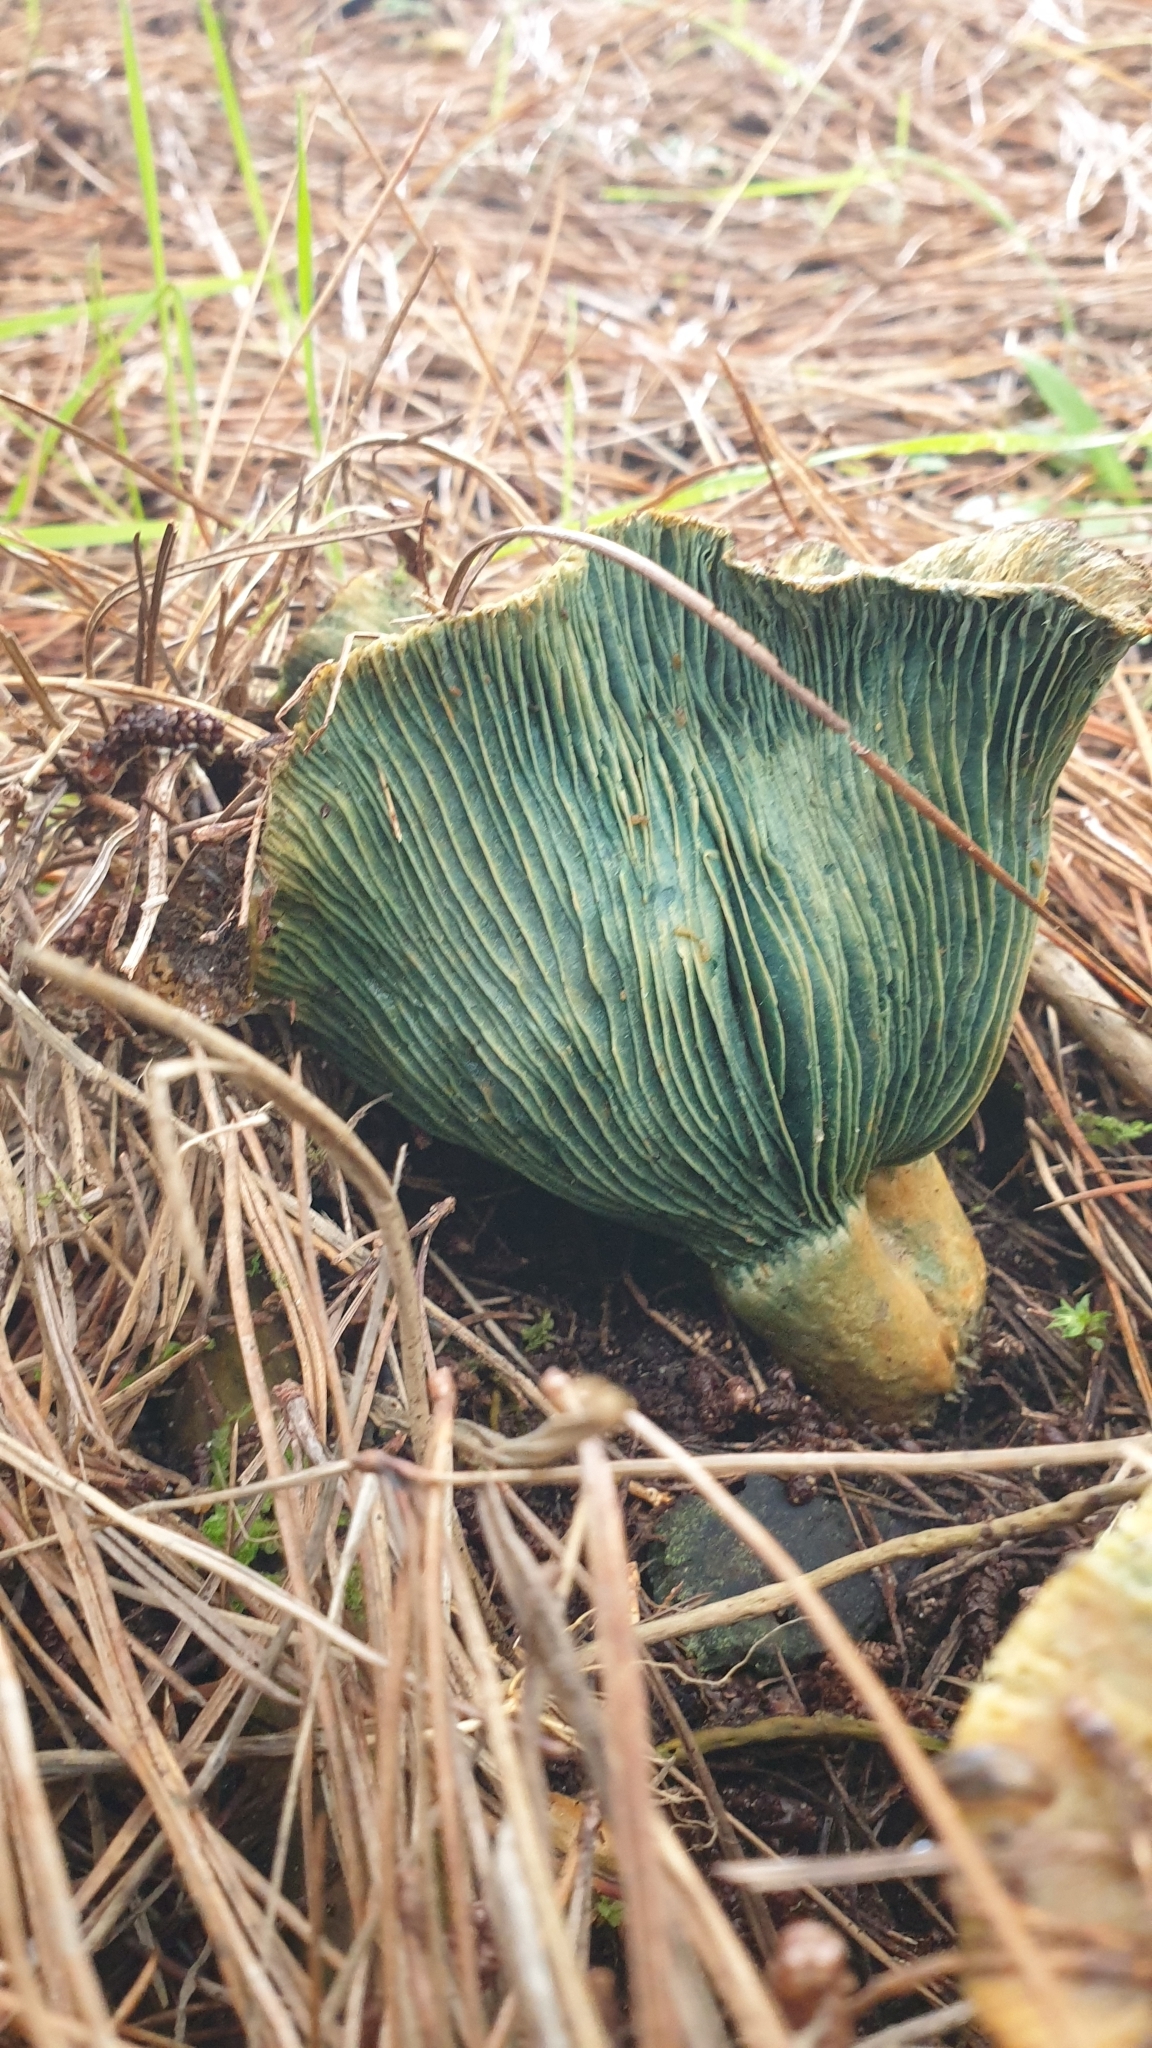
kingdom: Fungi
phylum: Basidiomycota
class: Agaricomycetes
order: Russulales
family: Russulaceae
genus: Lactarius
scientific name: Lactarius deliciosus
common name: Saffron milk-cap
